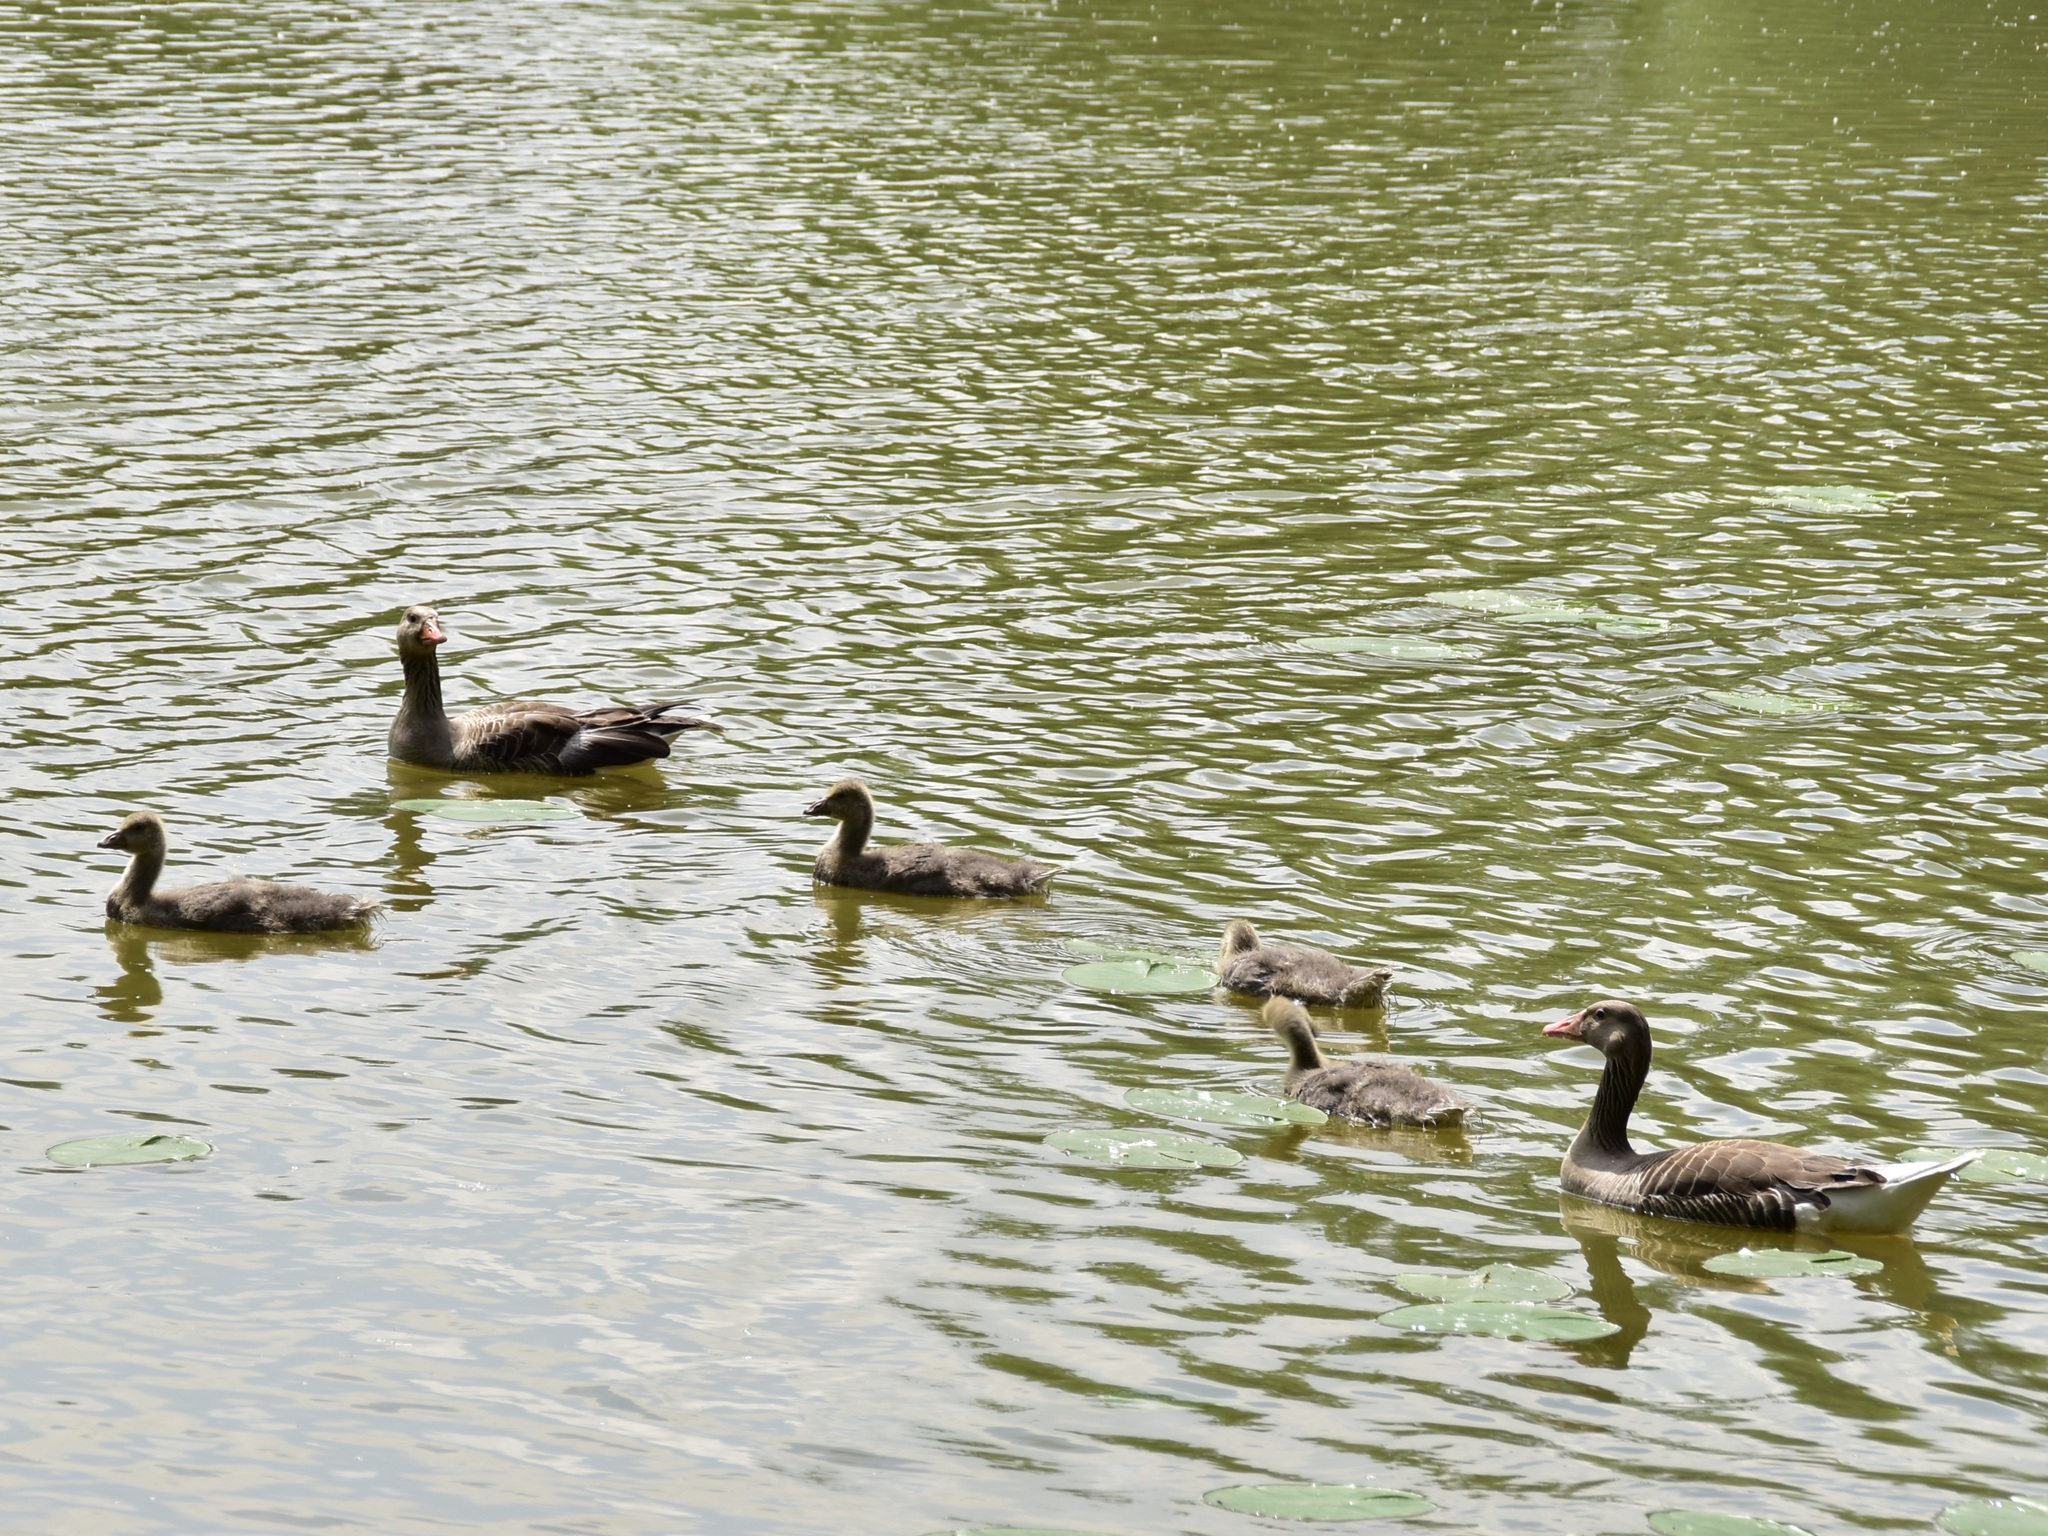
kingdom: Animalia
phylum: Chordata
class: Aves
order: Anseriformes
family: Anatidae
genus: Anser
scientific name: Anser anser
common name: Greylag goose
